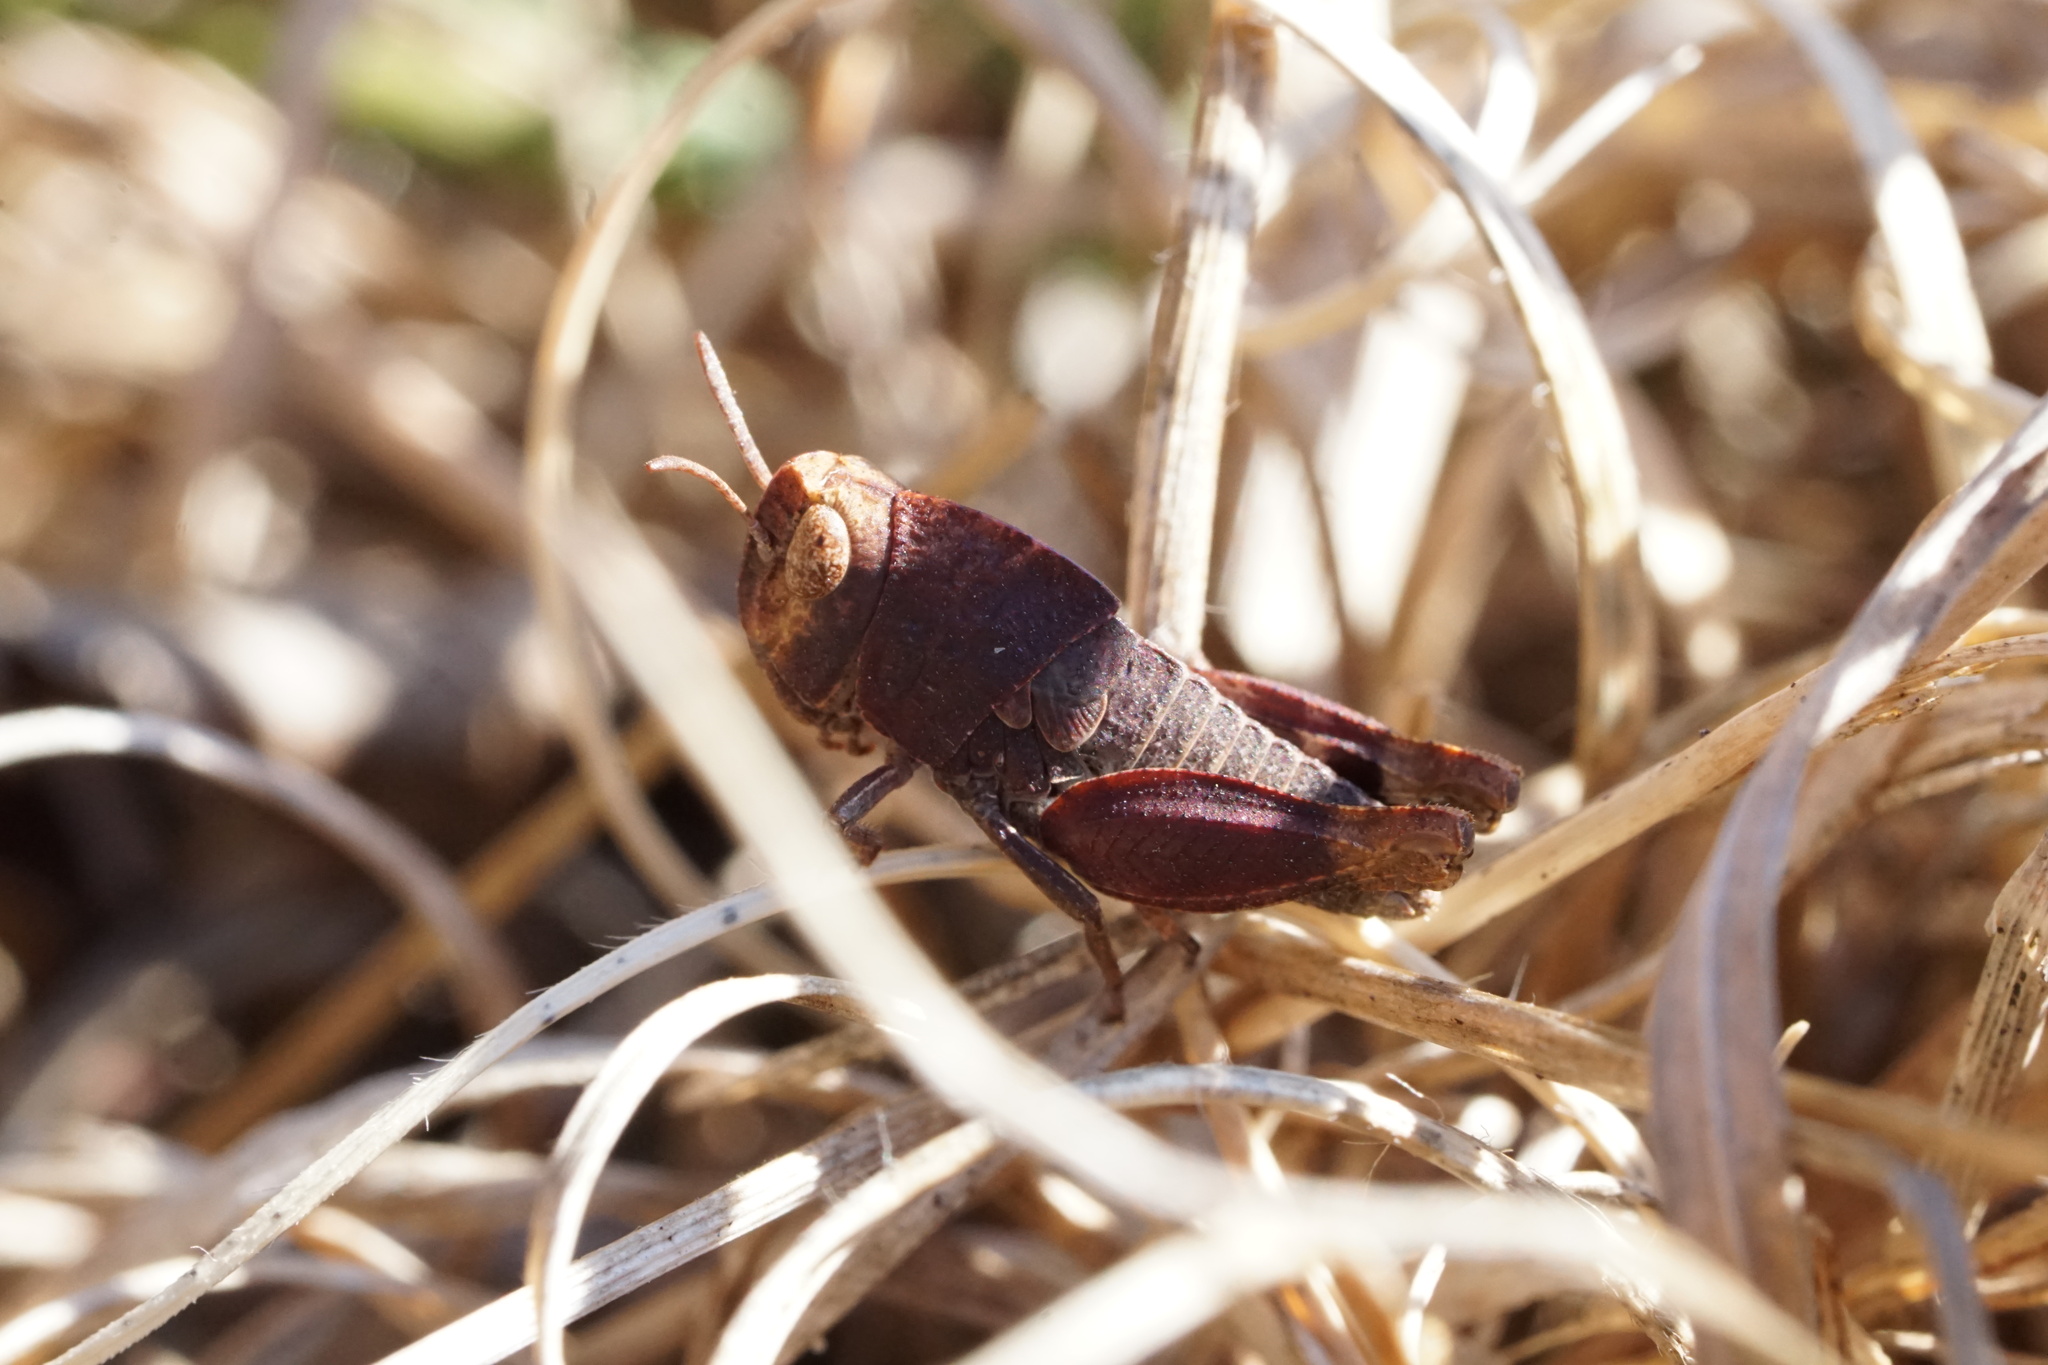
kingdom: Animalia
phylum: Arthropoda
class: Insecta
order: Orthoptera
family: Acrididae
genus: Arphia
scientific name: Arphia sulphurea
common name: Spring yellow-winged locust
